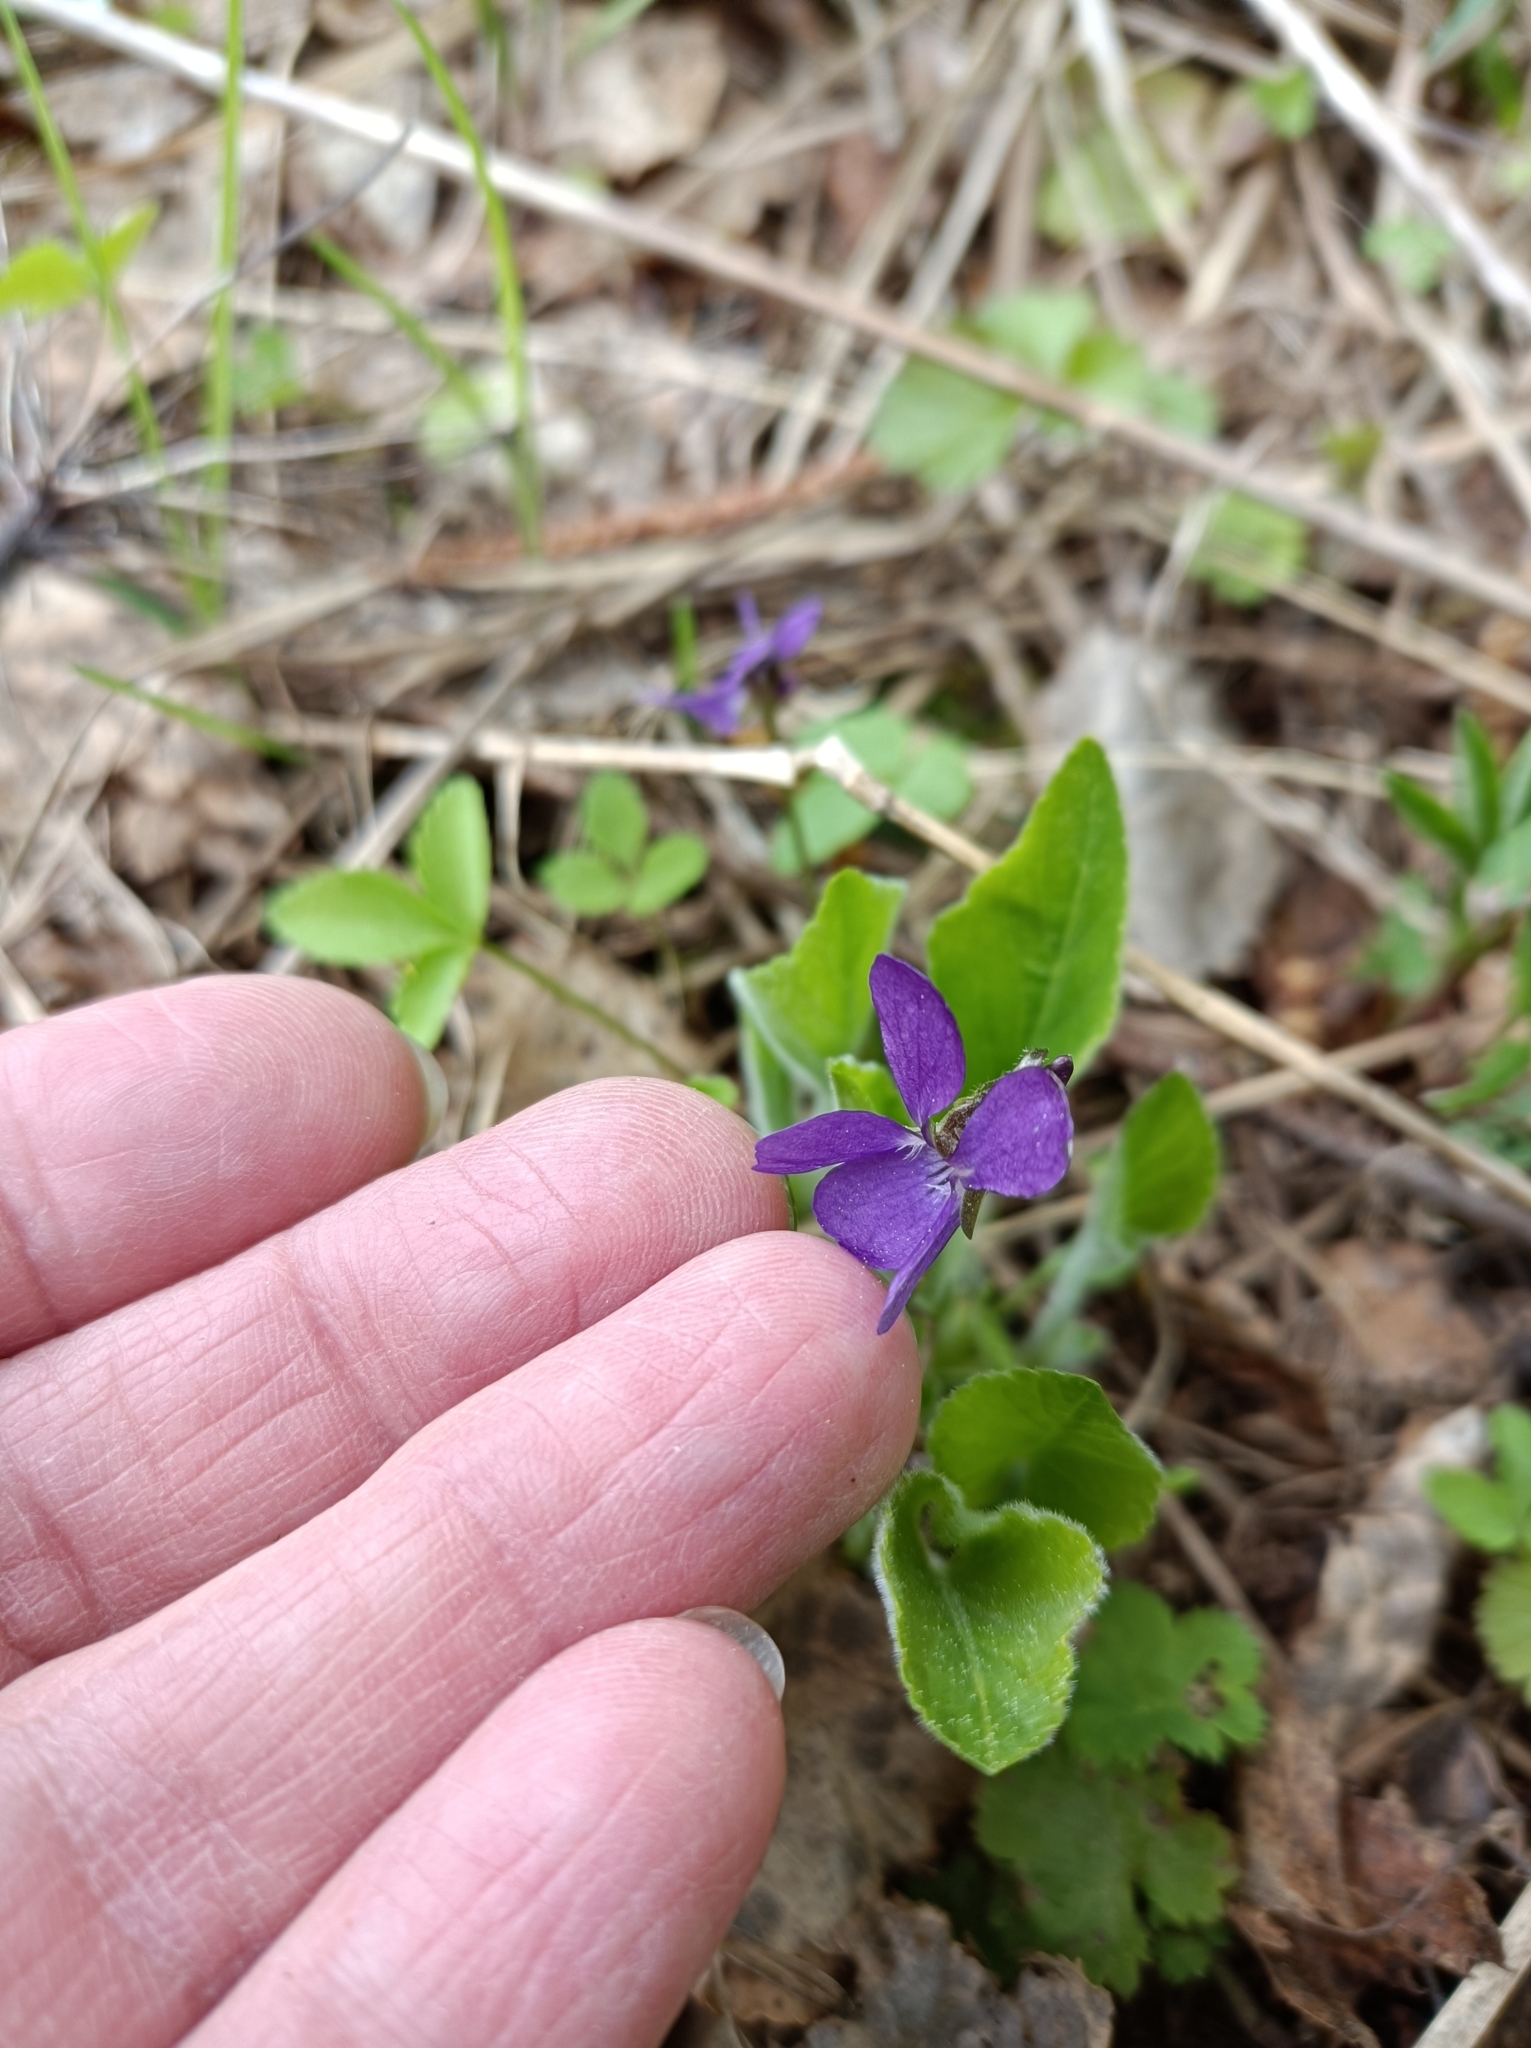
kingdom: Plantae
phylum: Tracheophyta
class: Magnoliopsida
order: Malpighiales
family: Violaceae
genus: Viola
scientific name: Viola hirta
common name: Hairy violet
